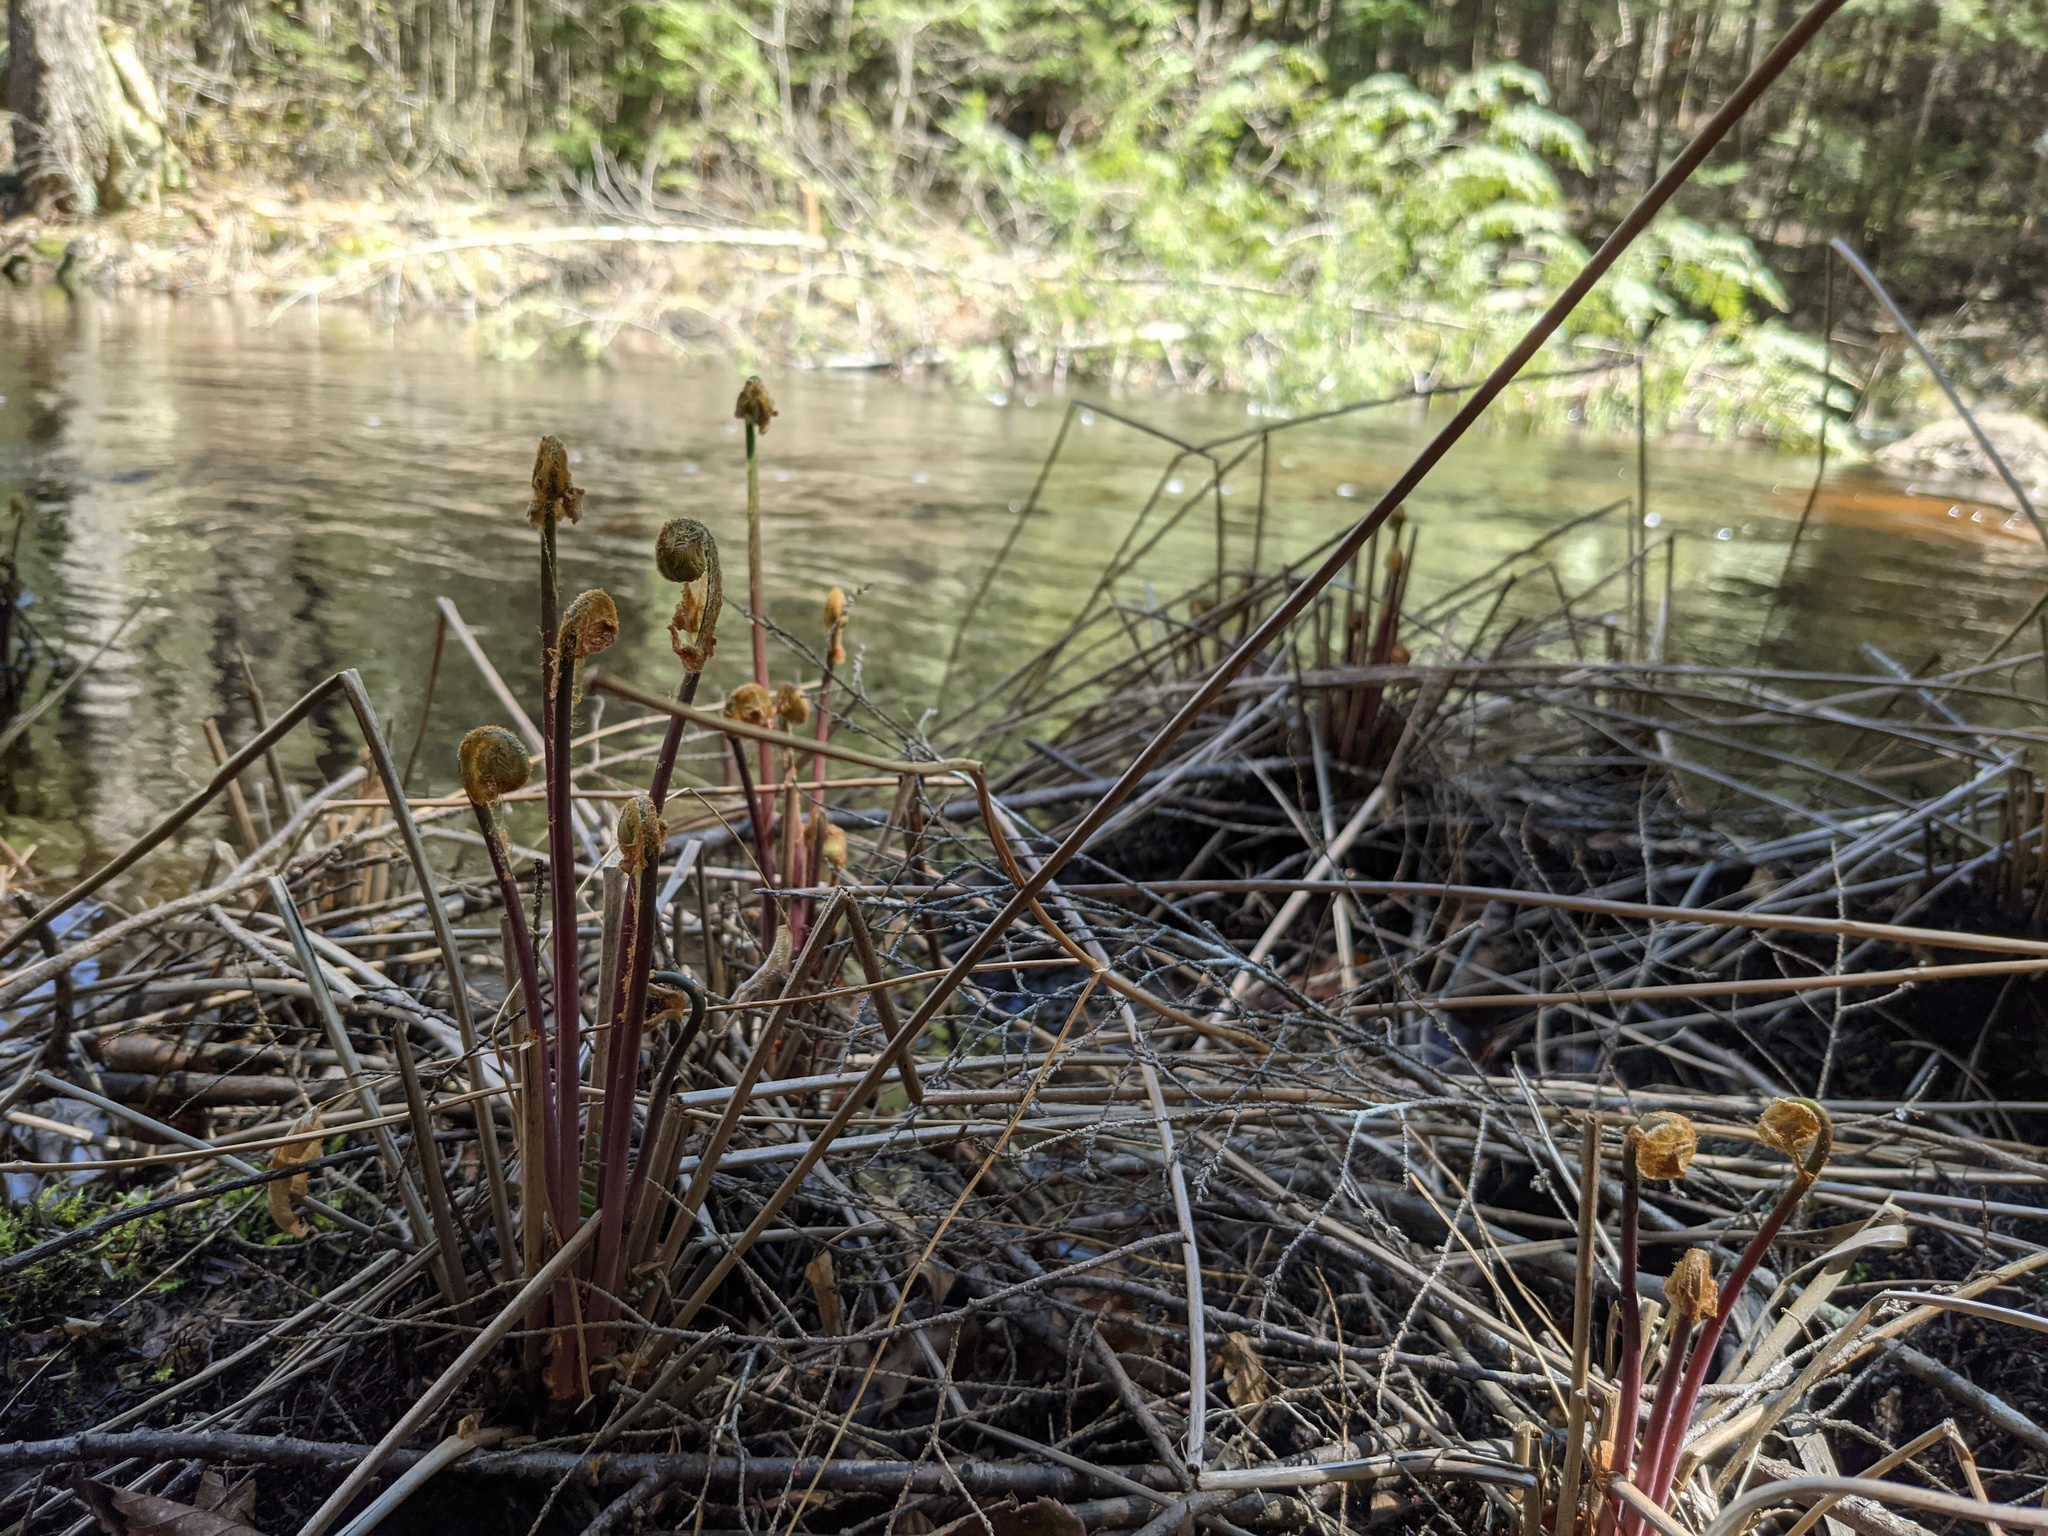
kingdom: Plantae
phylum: Tracheophyta
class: Polypodiopsida
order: Osmundales
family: Osmundaceae
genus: Osmunda
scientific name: Osmunda spectabilis
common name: American royal fern
